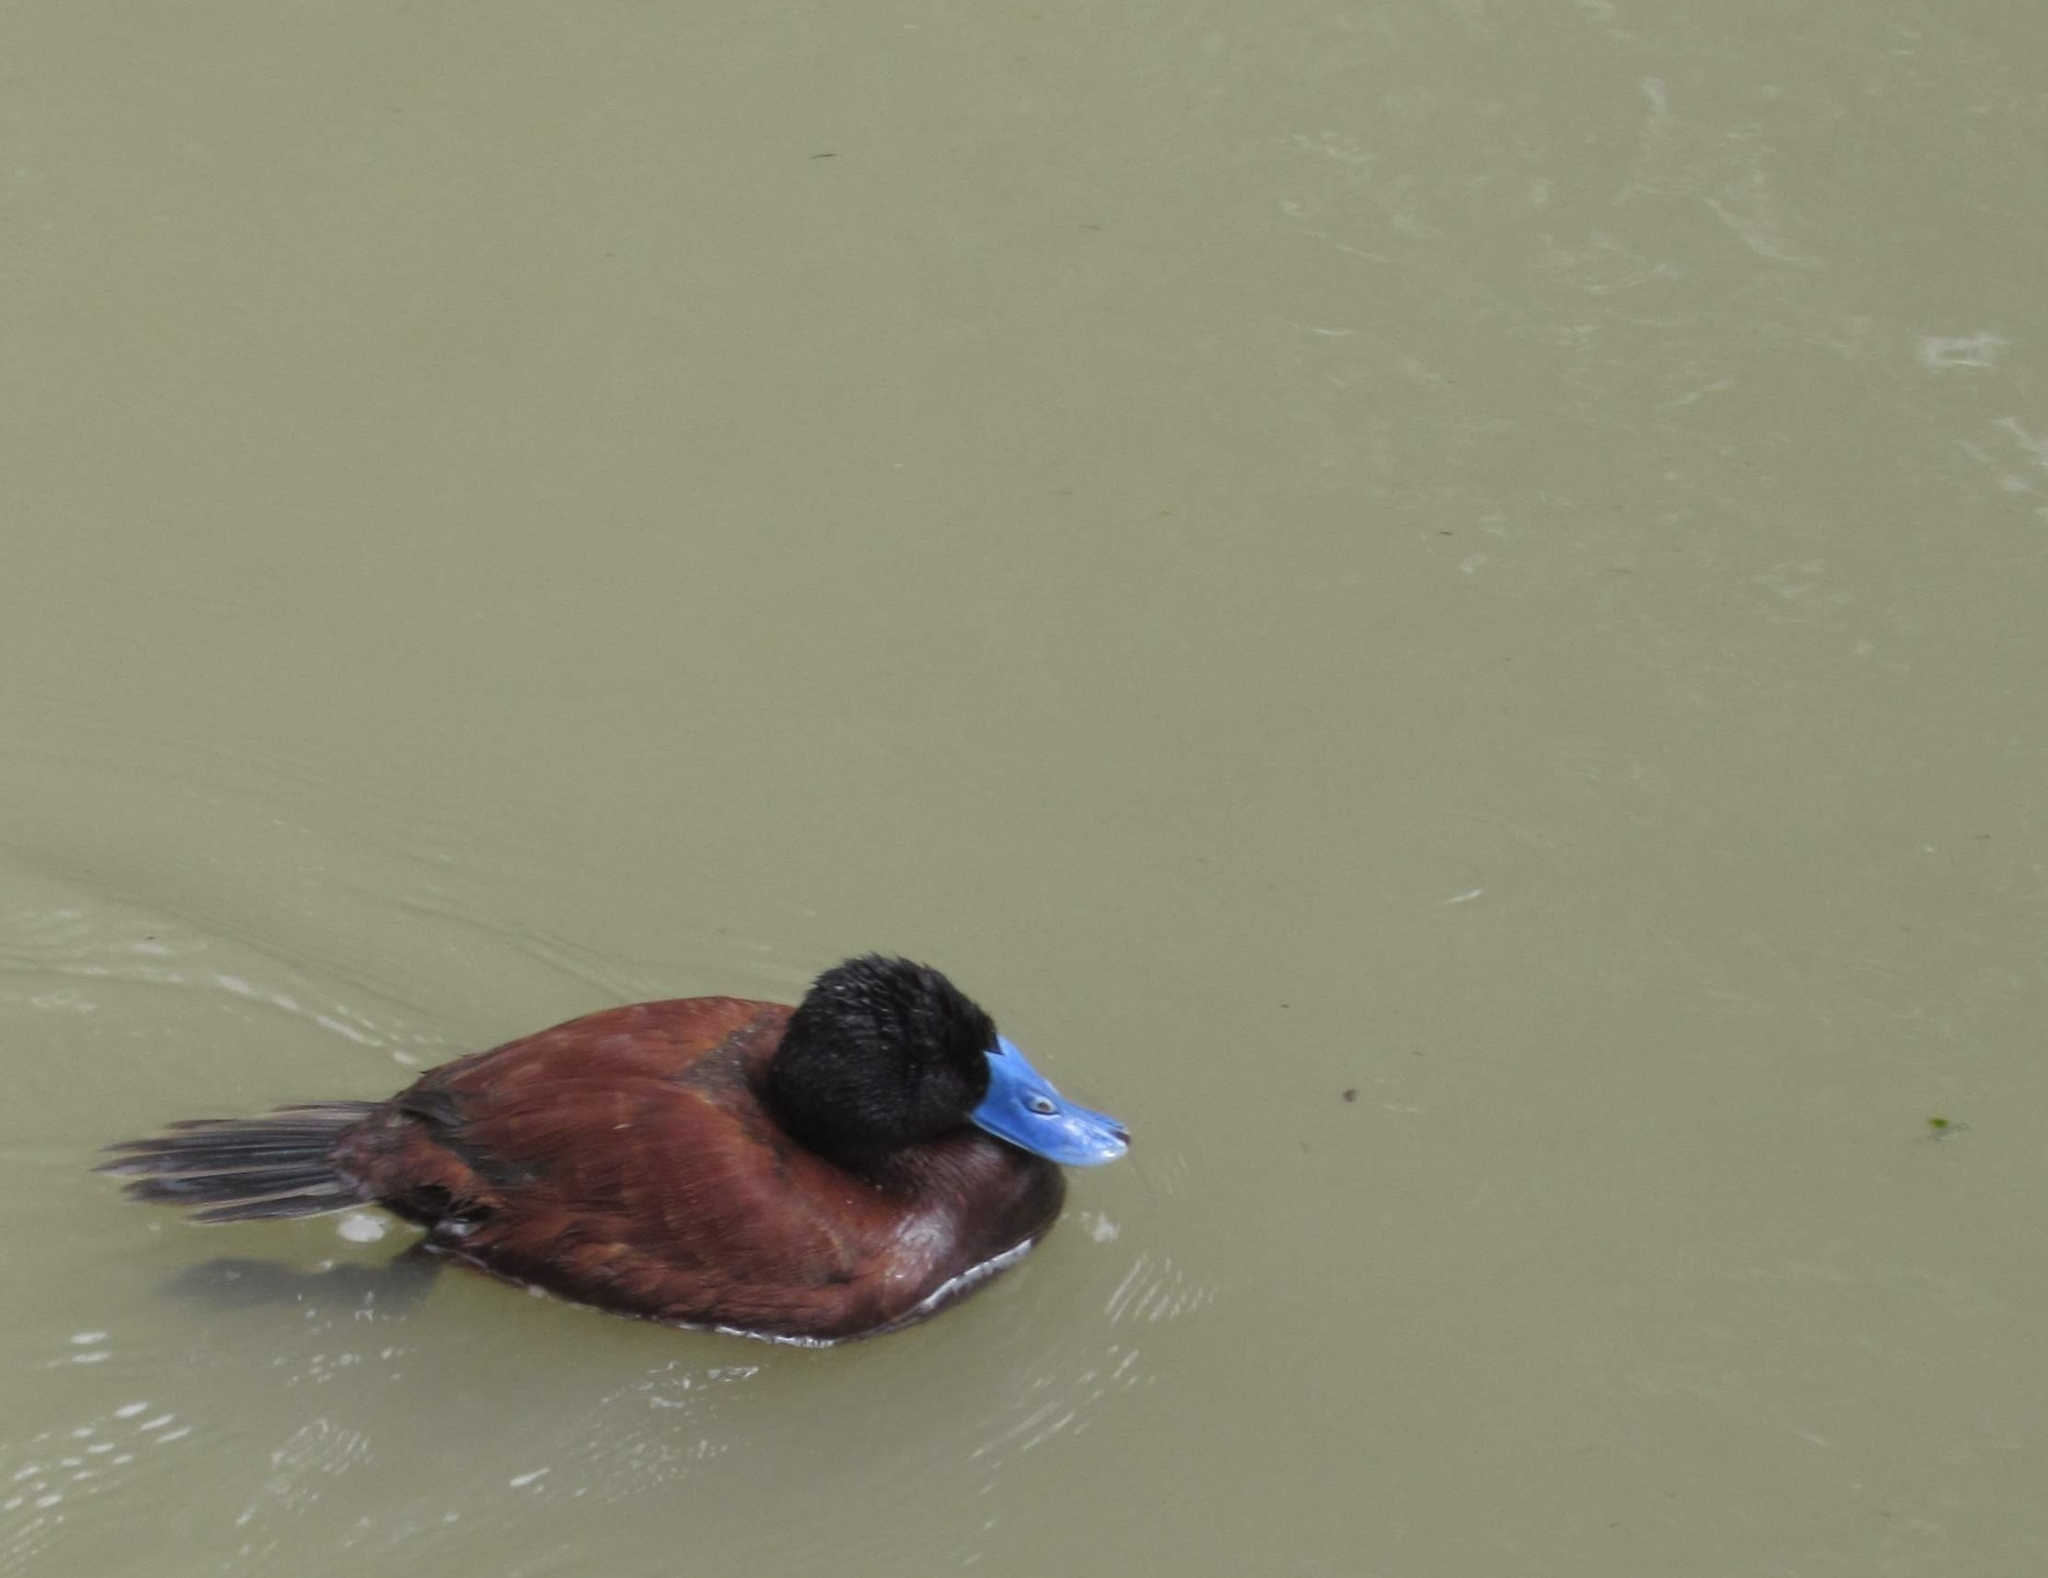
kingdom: Animalia
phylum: Chordata
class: Aves
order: Anseriformes
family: Anatidae
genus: Oxyura
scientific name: Oxyura ferruginea
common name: Andean duck
